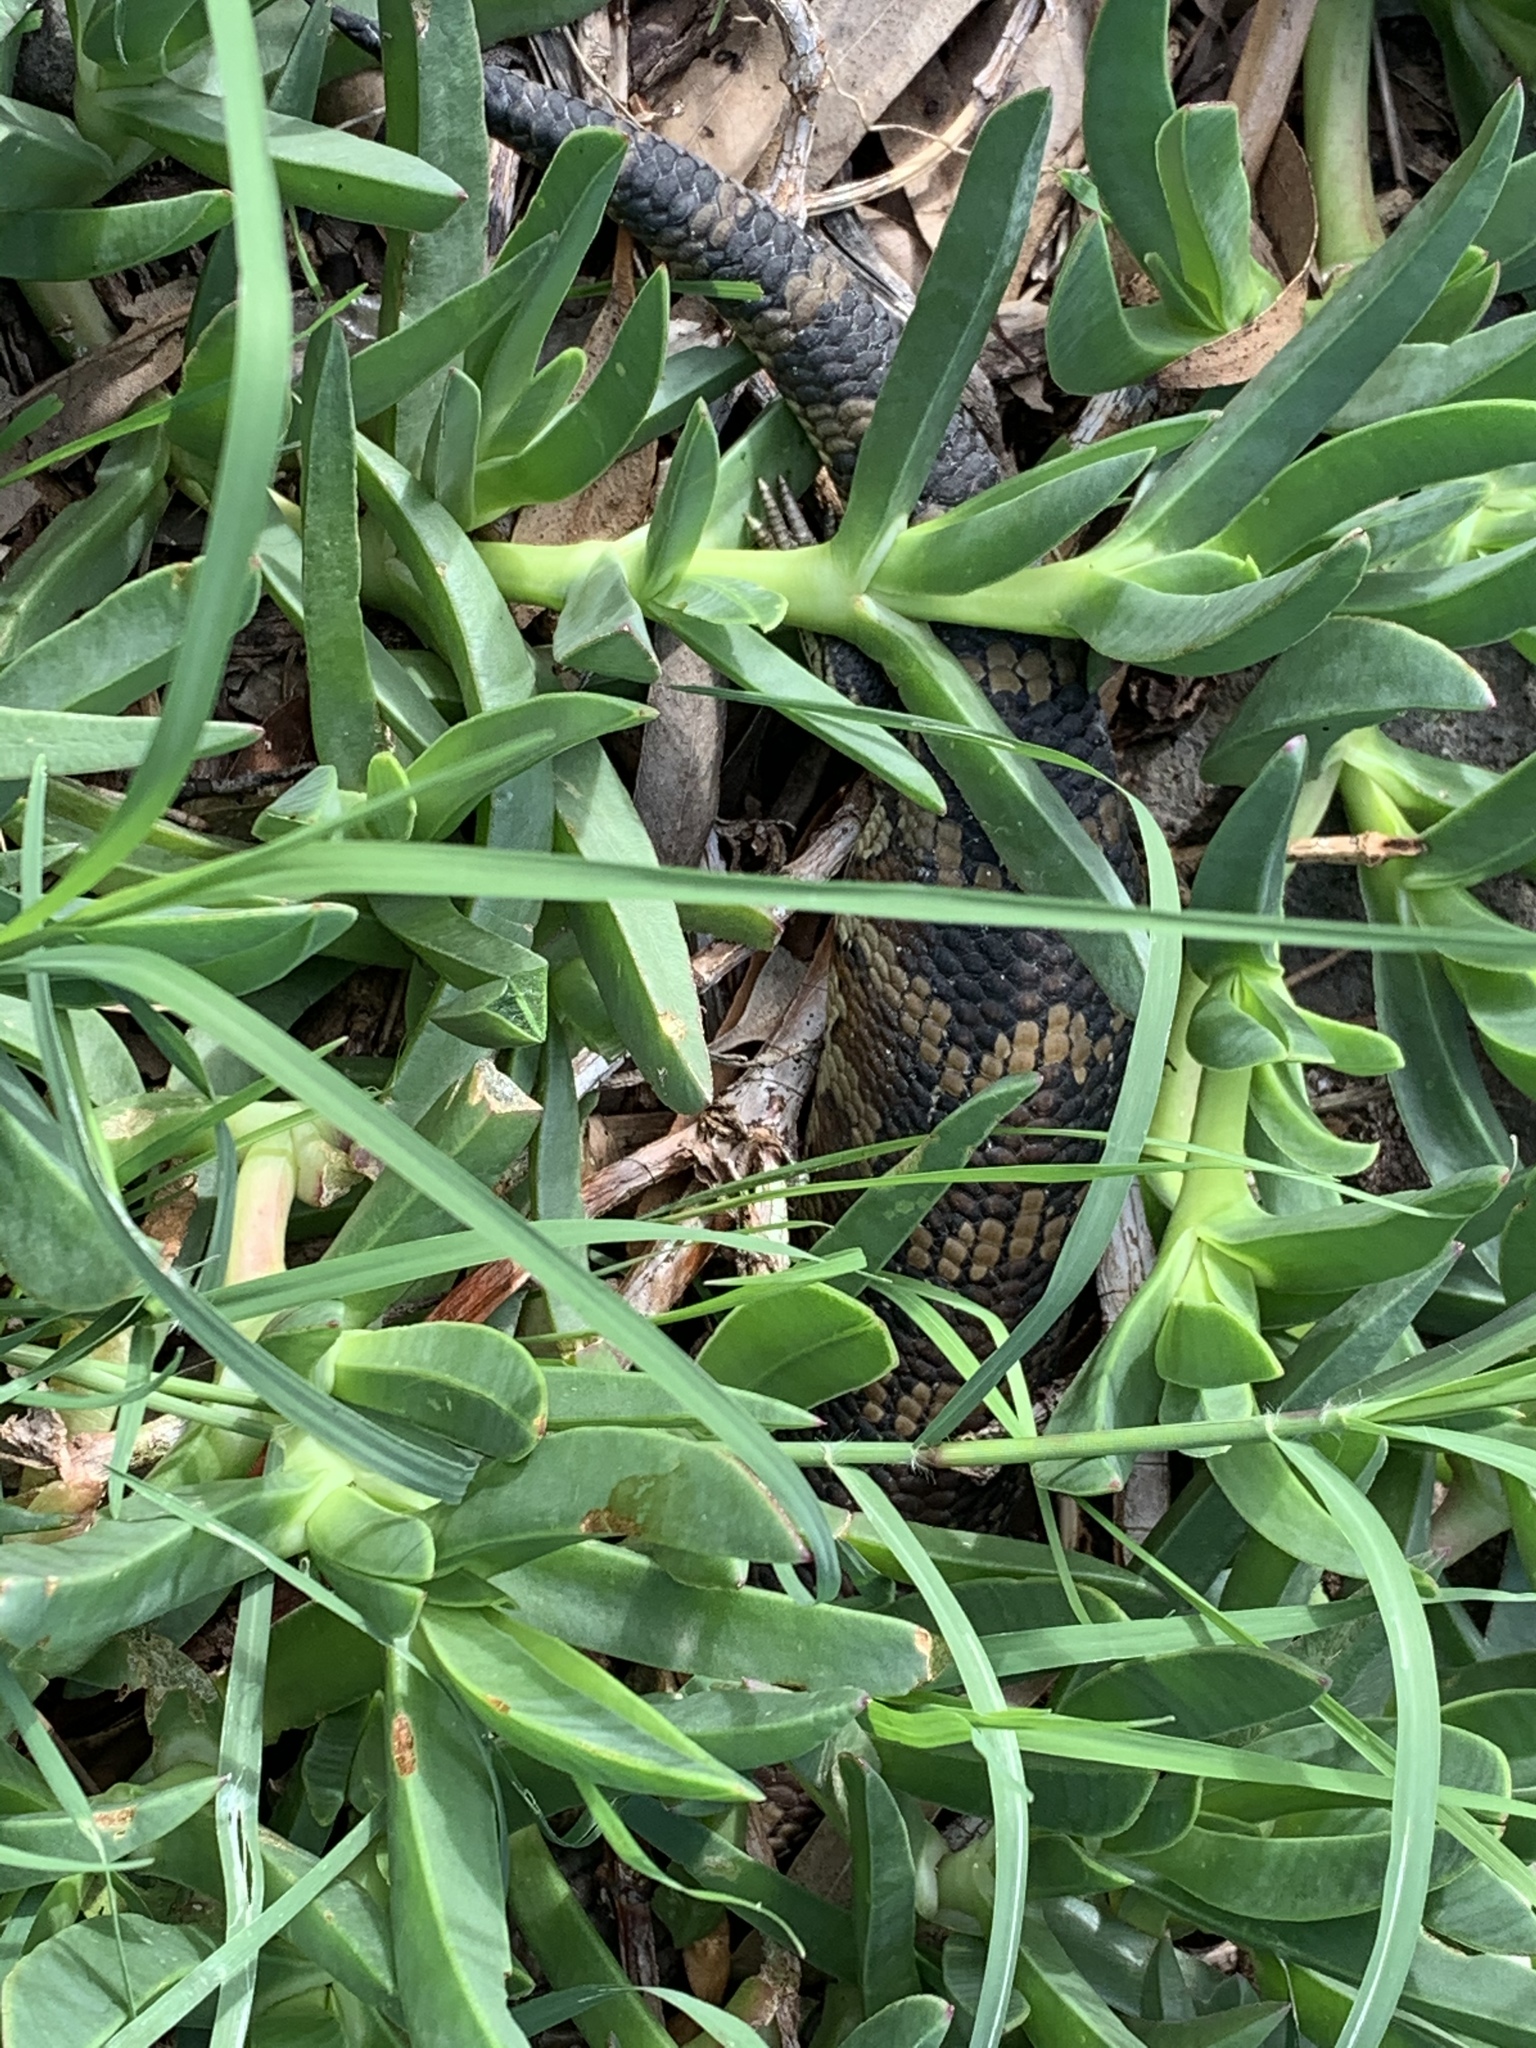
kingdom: Animalia
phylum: Chordata
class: Squamata
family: Scincidae
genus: Tiliqua
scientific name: Tiliqua scincoides
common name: Common bluetongue
